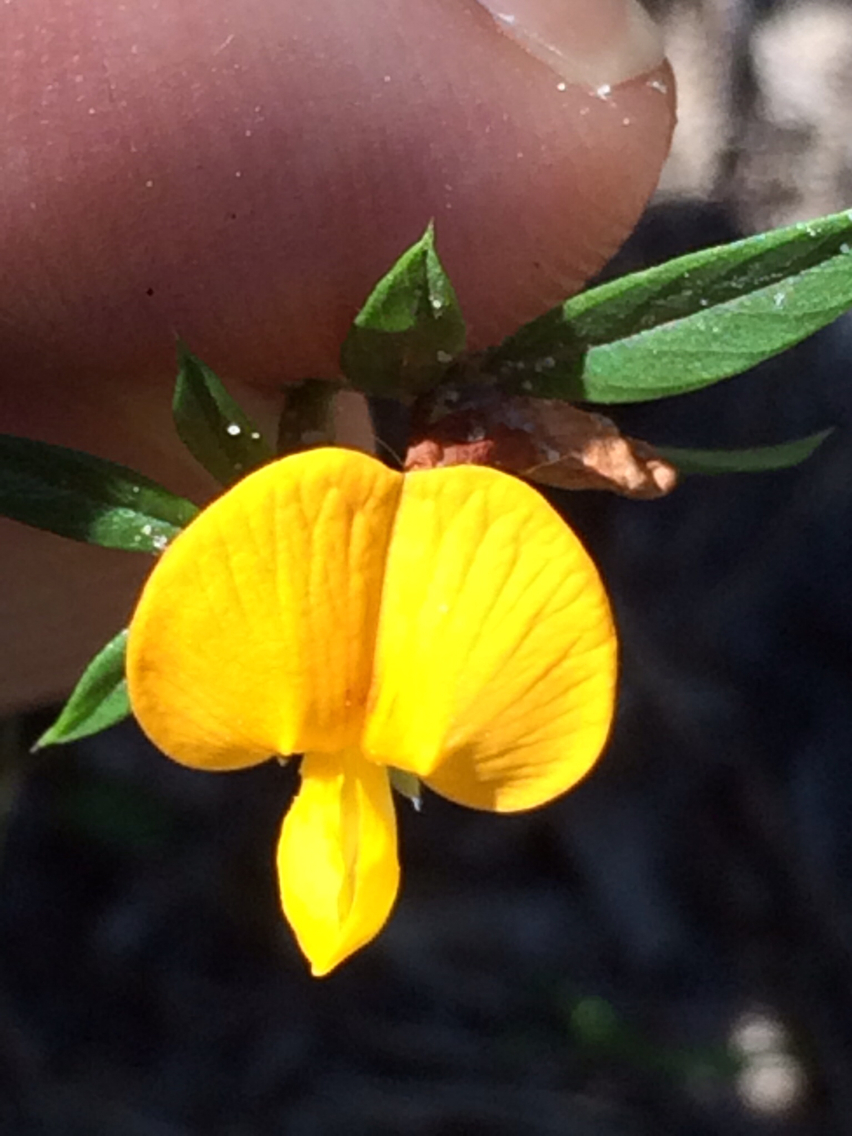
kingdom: Plantae
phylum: Tracheophyta
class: Magnoliopsida
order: Fabales
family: Fabaceae
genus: Stylosanthes
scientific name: Stylosanthes biflora
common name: Two-flower pencil-flower
